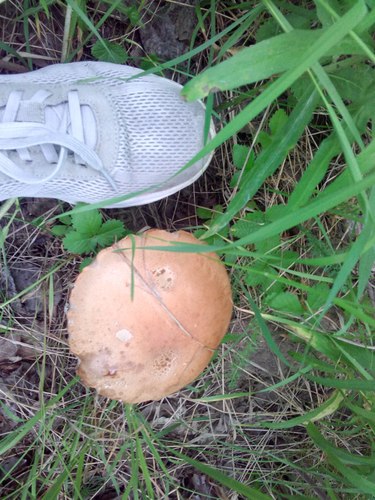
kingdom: Fungi
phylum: Basidiomycota
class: Agaricomycetes
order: Boletales
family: Boletaceae
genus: Leccinum
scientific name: Leccinum
